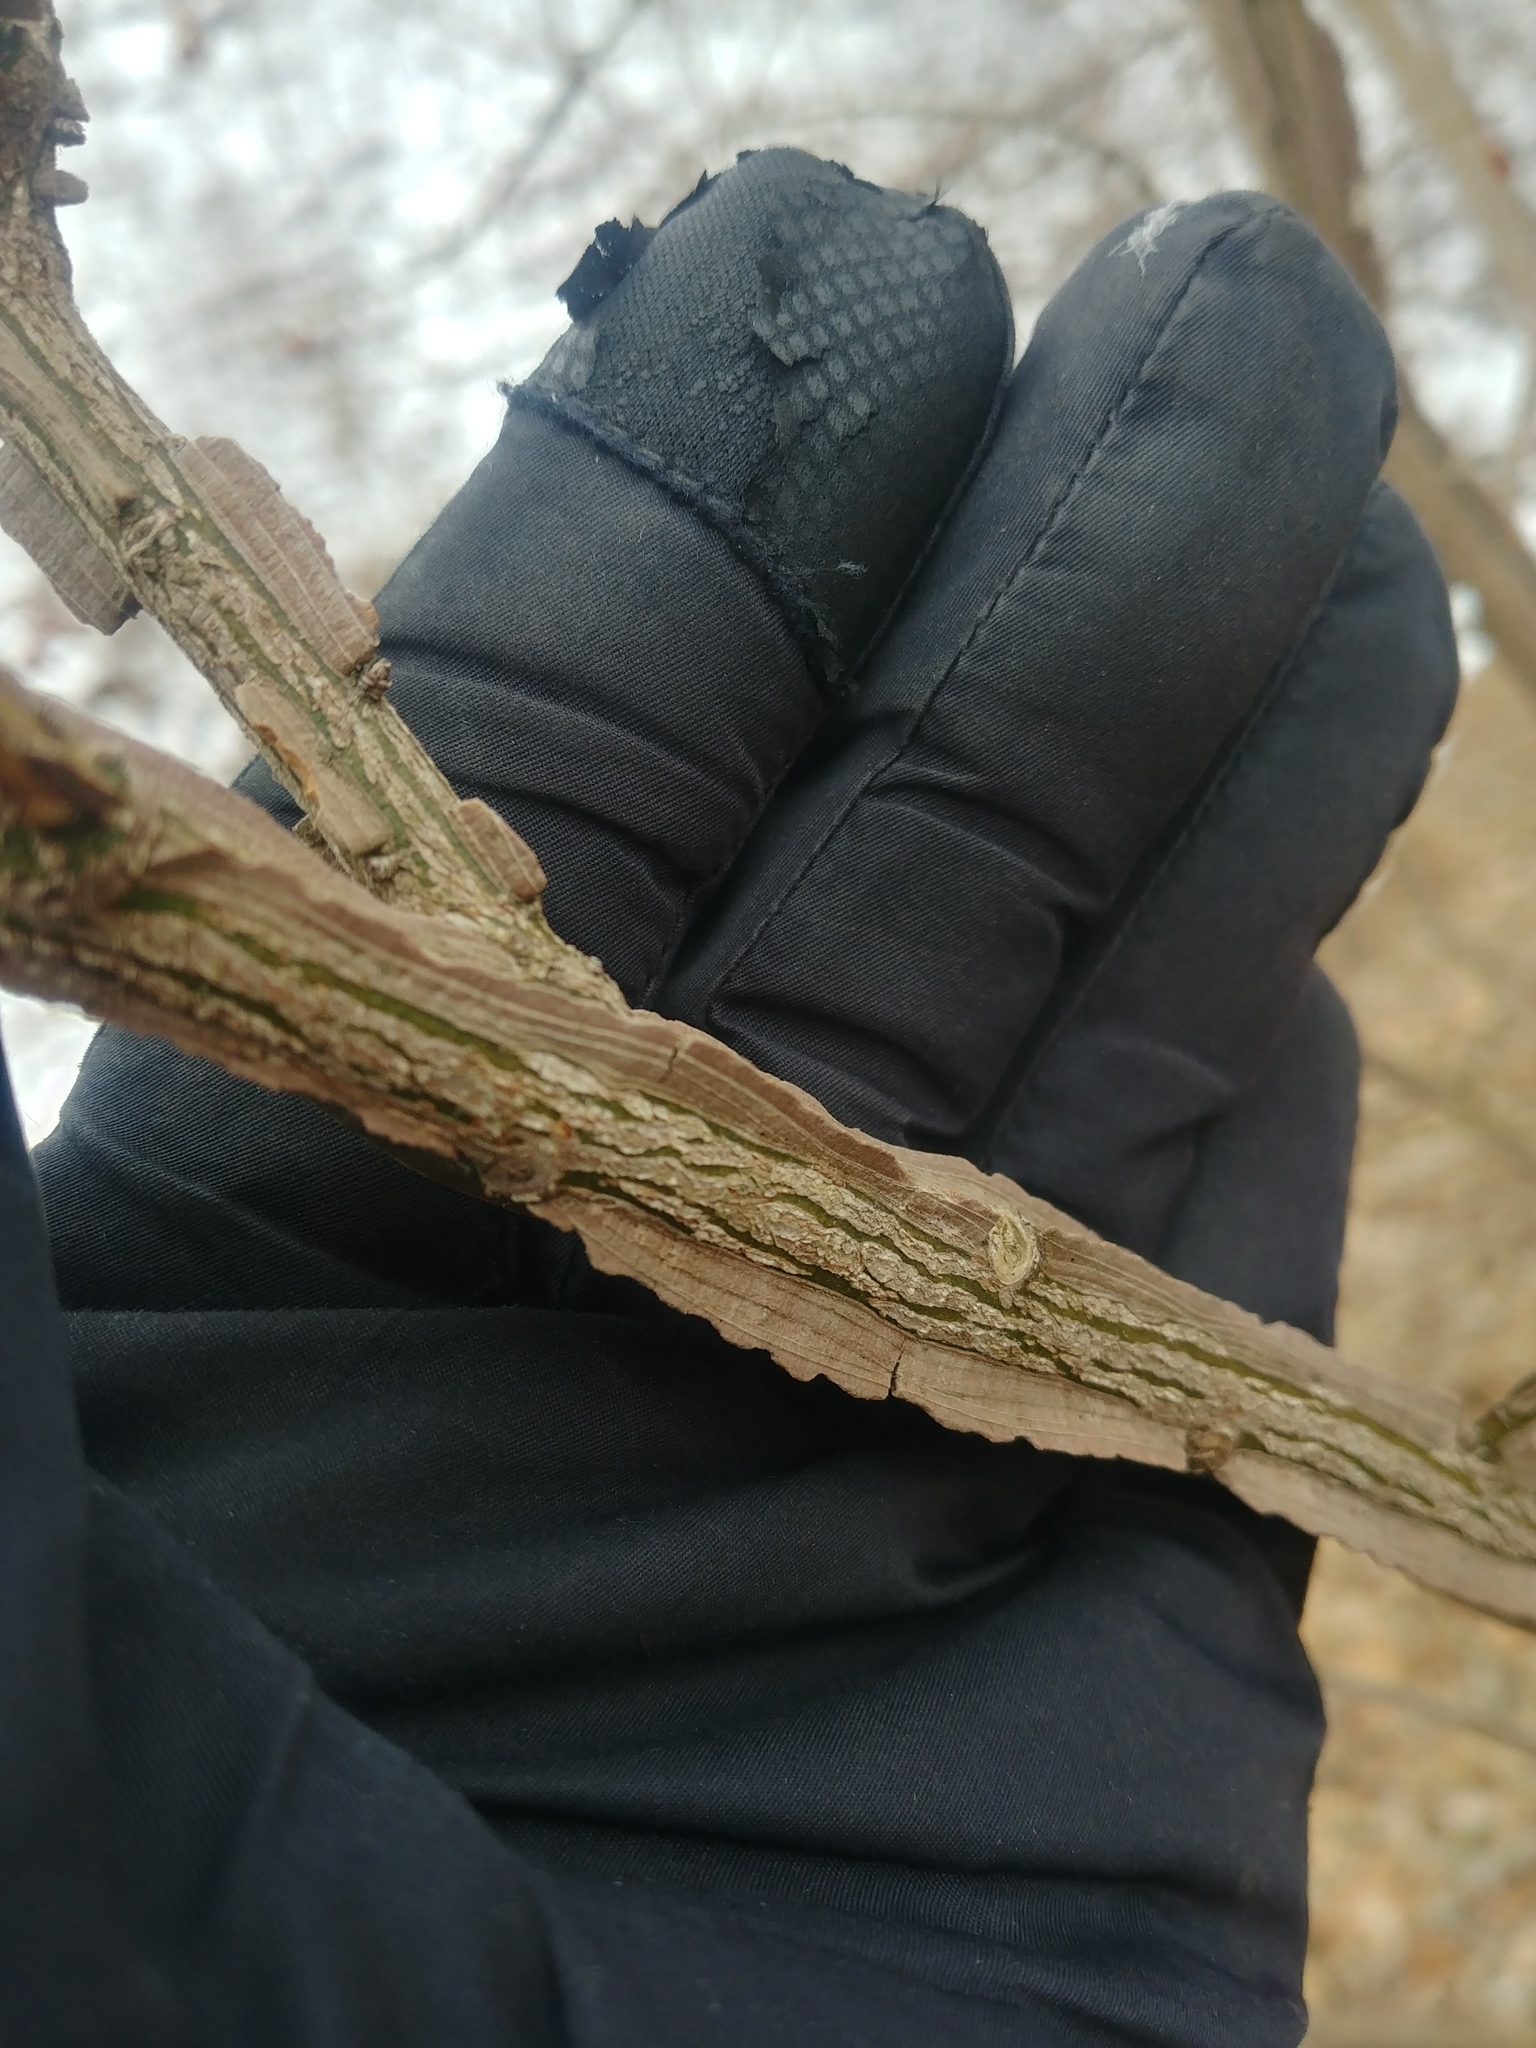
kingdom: Plantae
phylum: Tracheophyta
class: Magnoliopsida
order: Celastrales
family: Celastraceae
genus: Euonymus
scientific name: Euonymus alatus
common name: Winged euonymus
